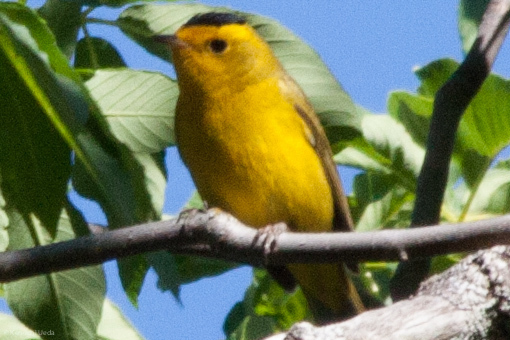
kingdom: Animalia
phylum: Chordata
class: Aves
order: Passeriformes
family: Parulidae
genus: Cardellina
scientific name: Cardellina pusilla
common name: Wilson's warbler
